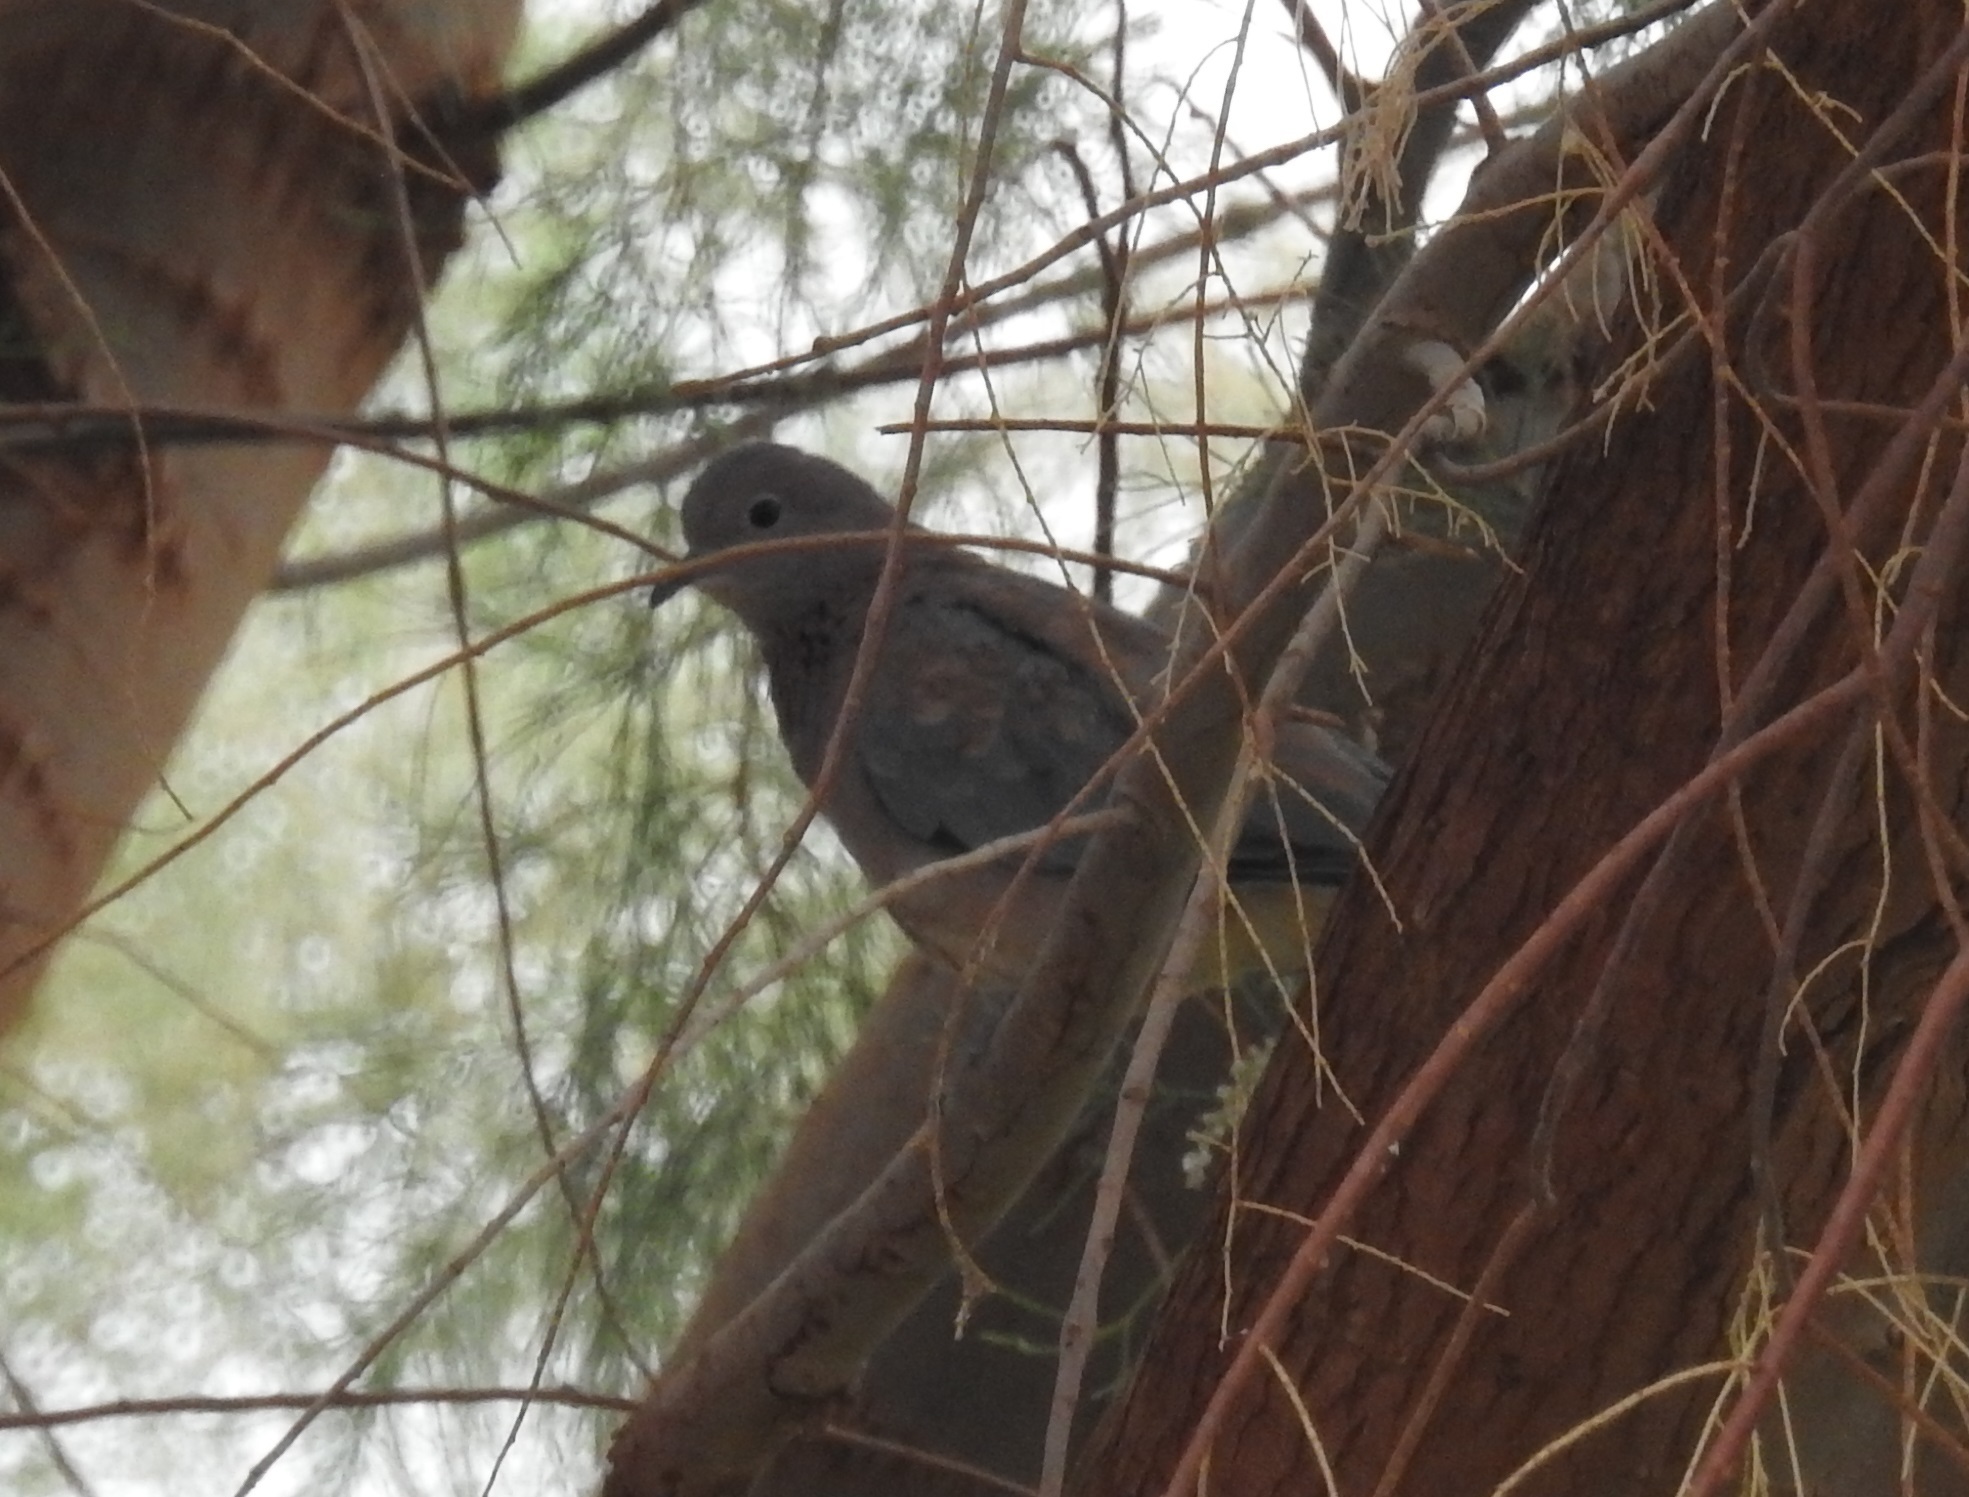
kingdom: Animalia
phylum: Chordata
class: Aves
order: Columbiformes
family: Columbidae
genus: Spilopelia
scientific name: Spilopelia senegalensis
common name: Laughing dove
